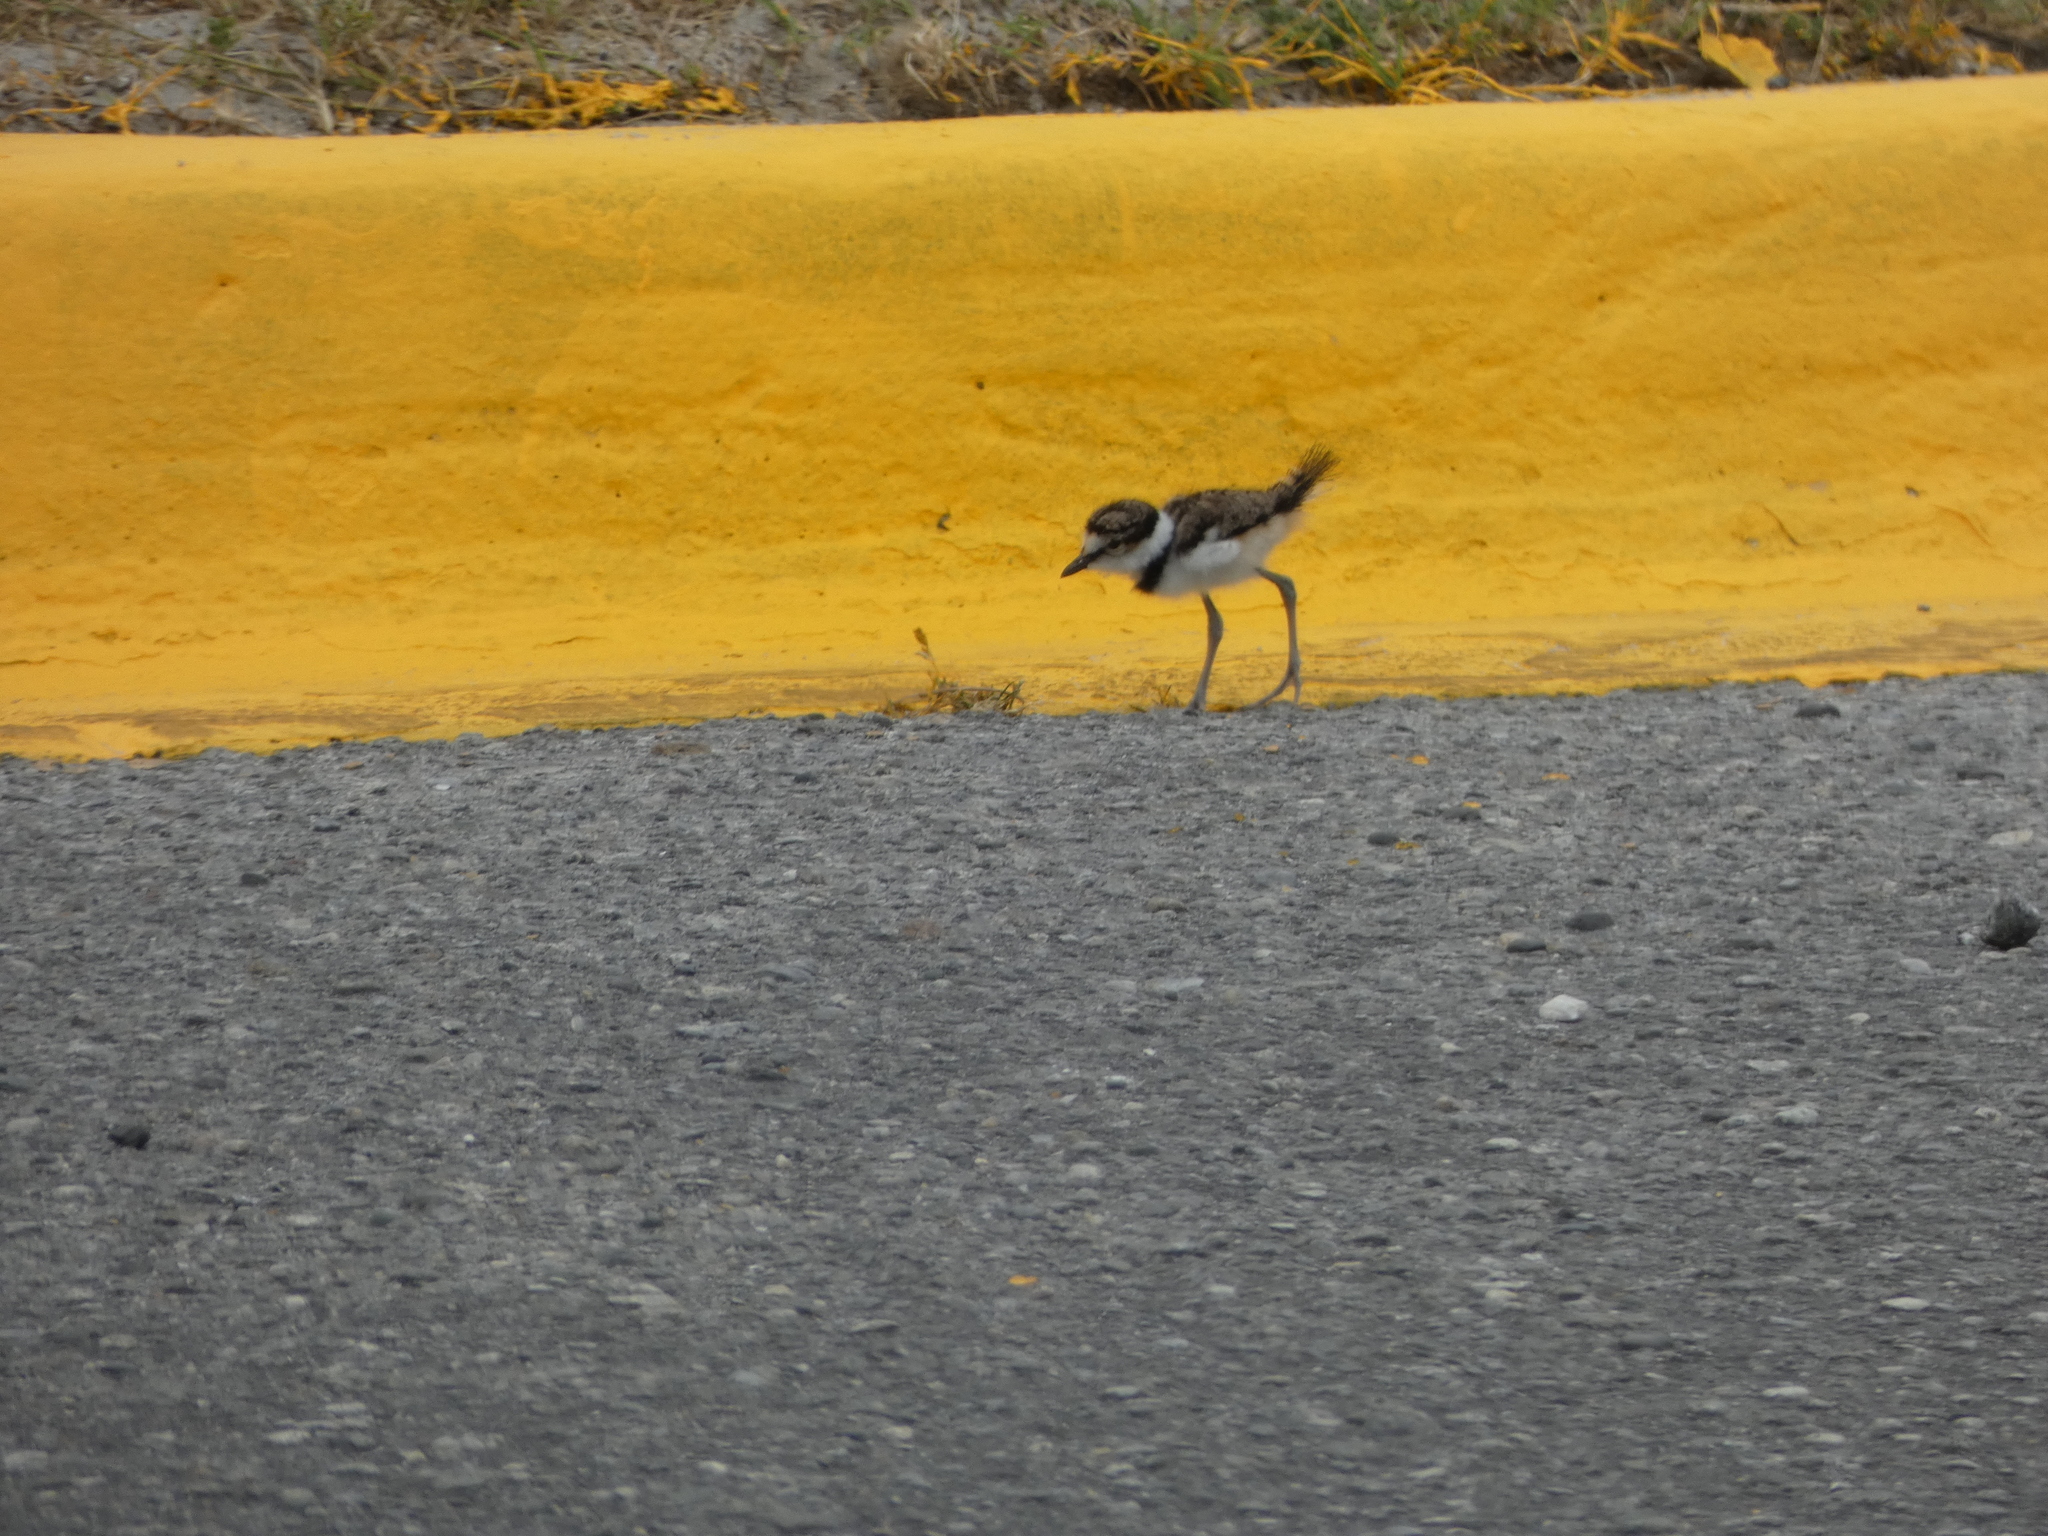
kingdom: Animalia
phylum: Chordata
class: Aves
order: Charadriiformes
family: Charadriidae
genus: Charadrius
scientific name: Charadrius vociferus
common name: Killdeer
